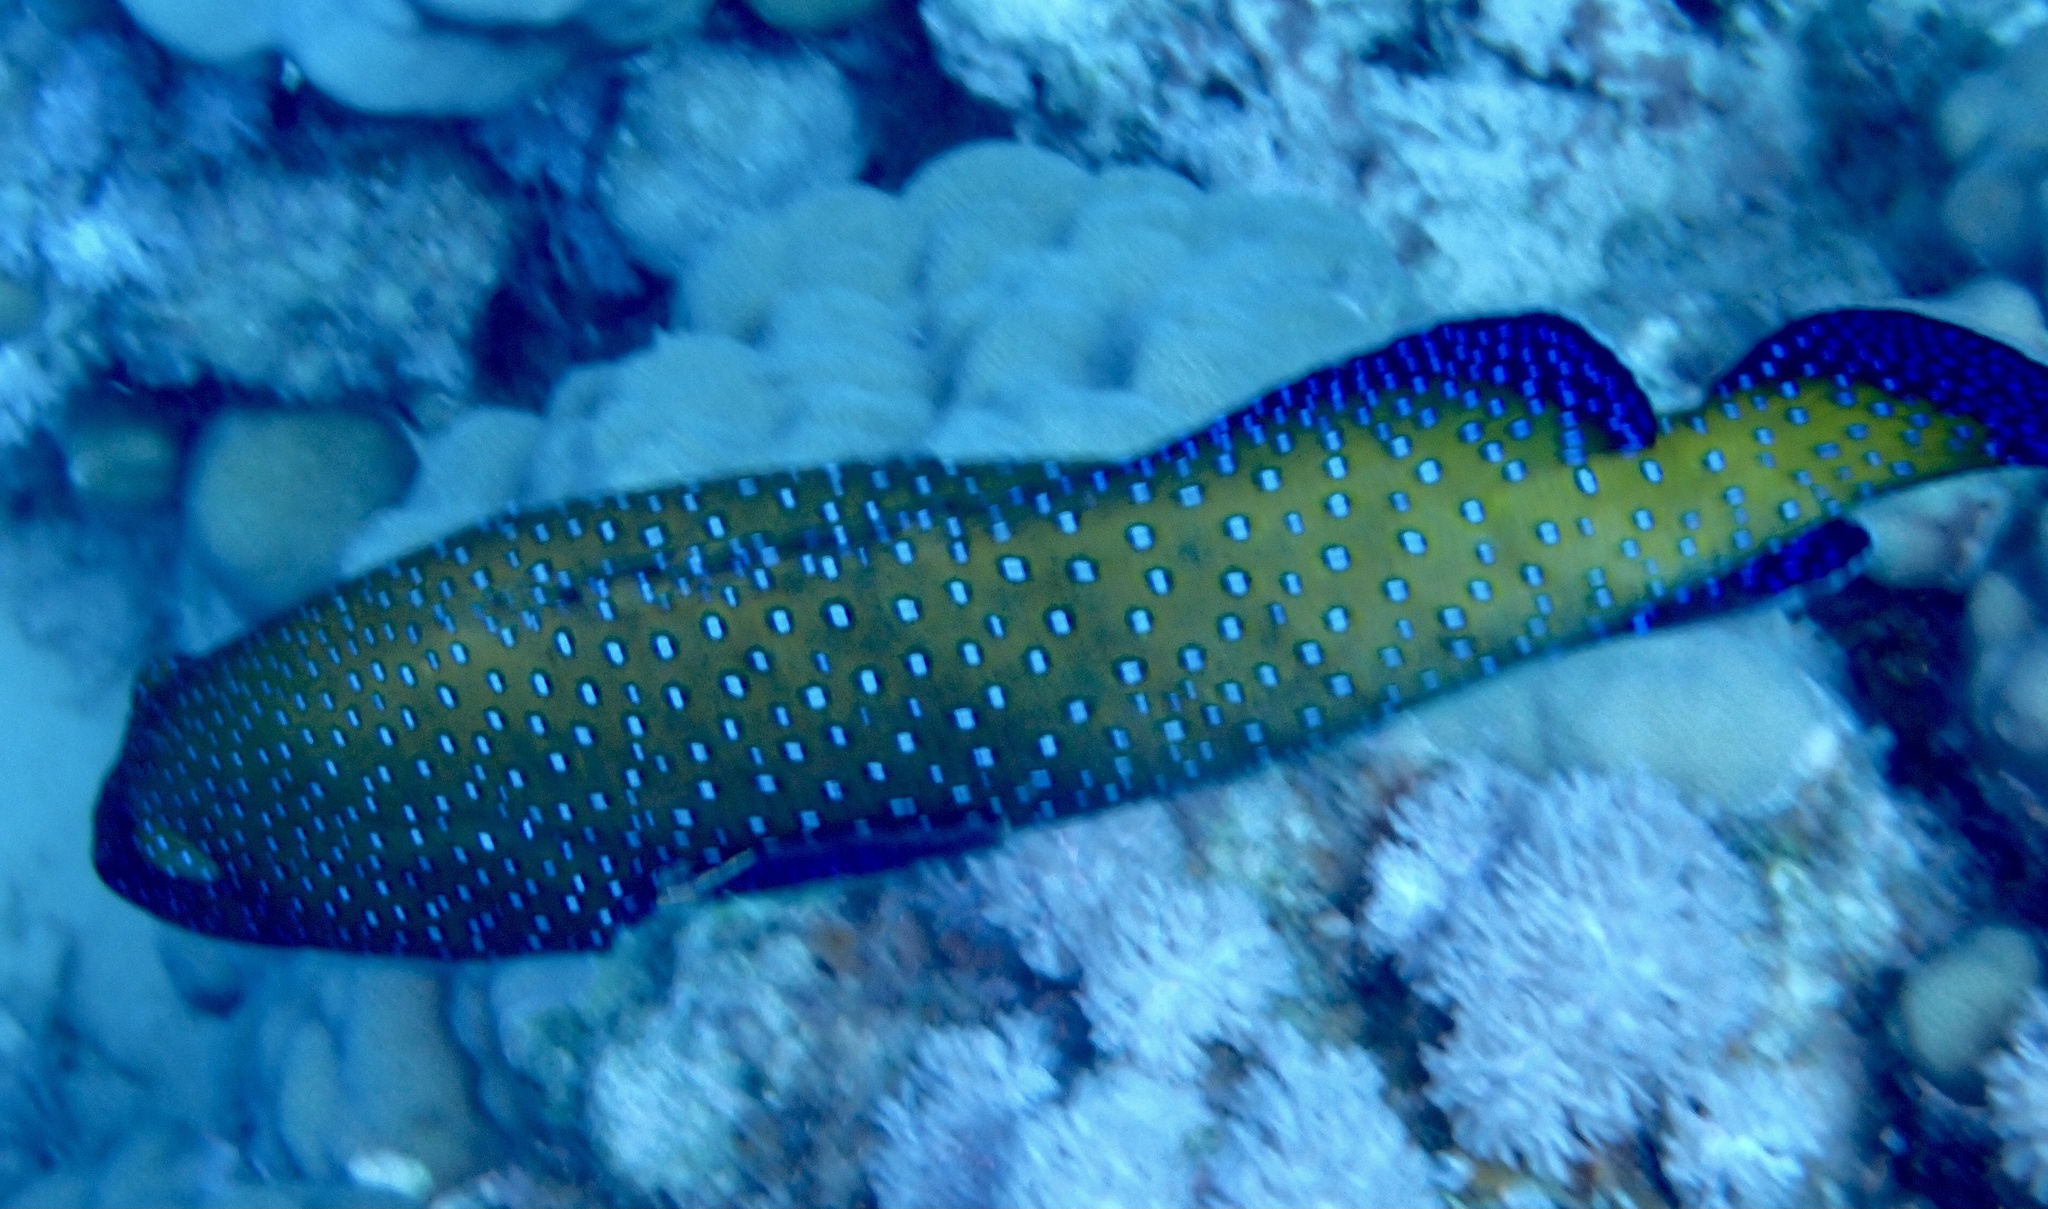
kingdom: Animalia
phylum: Chordata
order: Perciformes
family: Serranidae
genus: Cephalopholis
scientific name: Cephalopholis argus
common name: Peacock grouper
